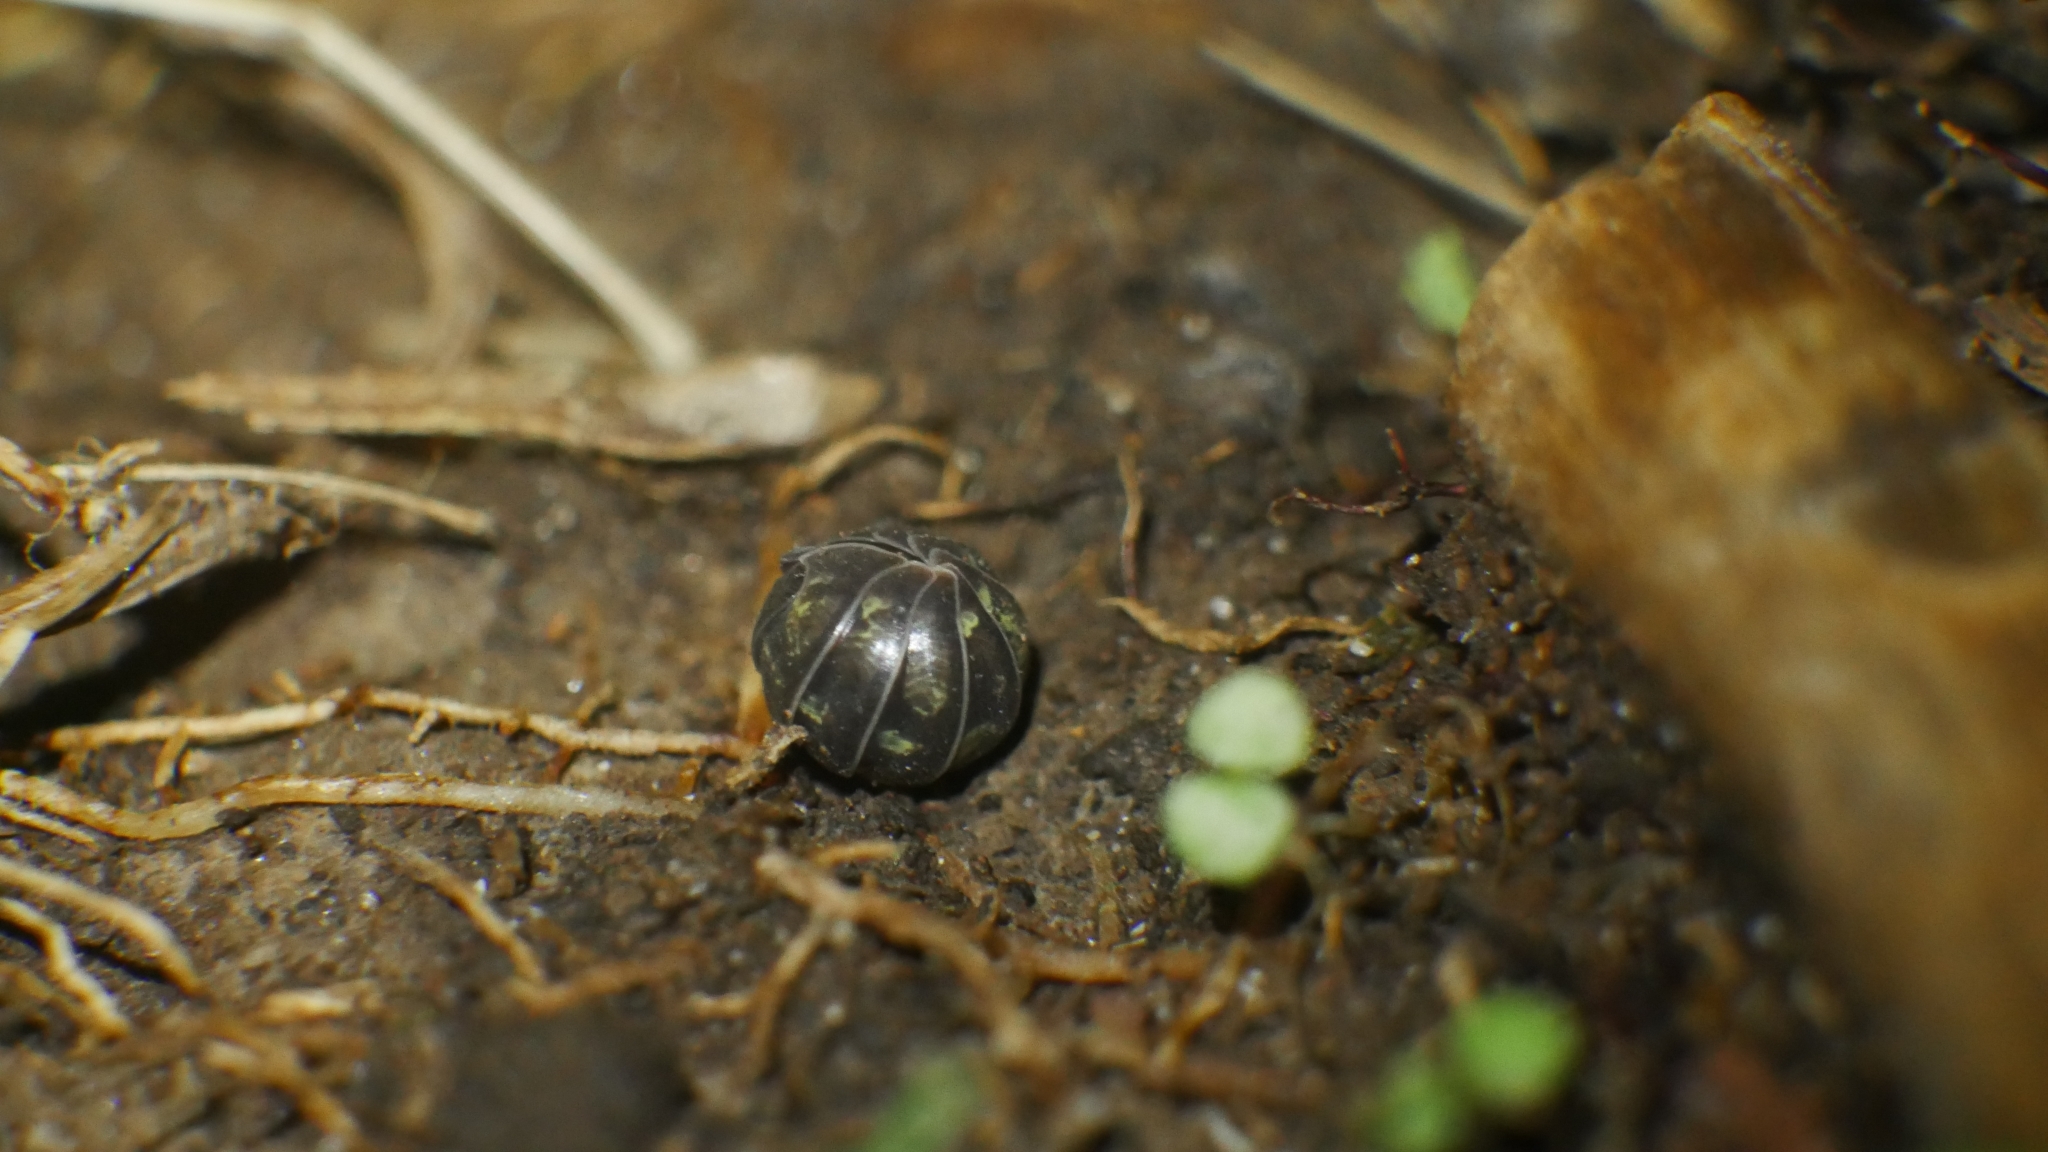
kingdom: Animalia
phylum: Arthropoda
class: Malacostraca
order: Isopoda
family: Armadillidiidae
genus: Armadillidium
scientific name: Armadillidium vulgare
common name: Common pill woodlouse
